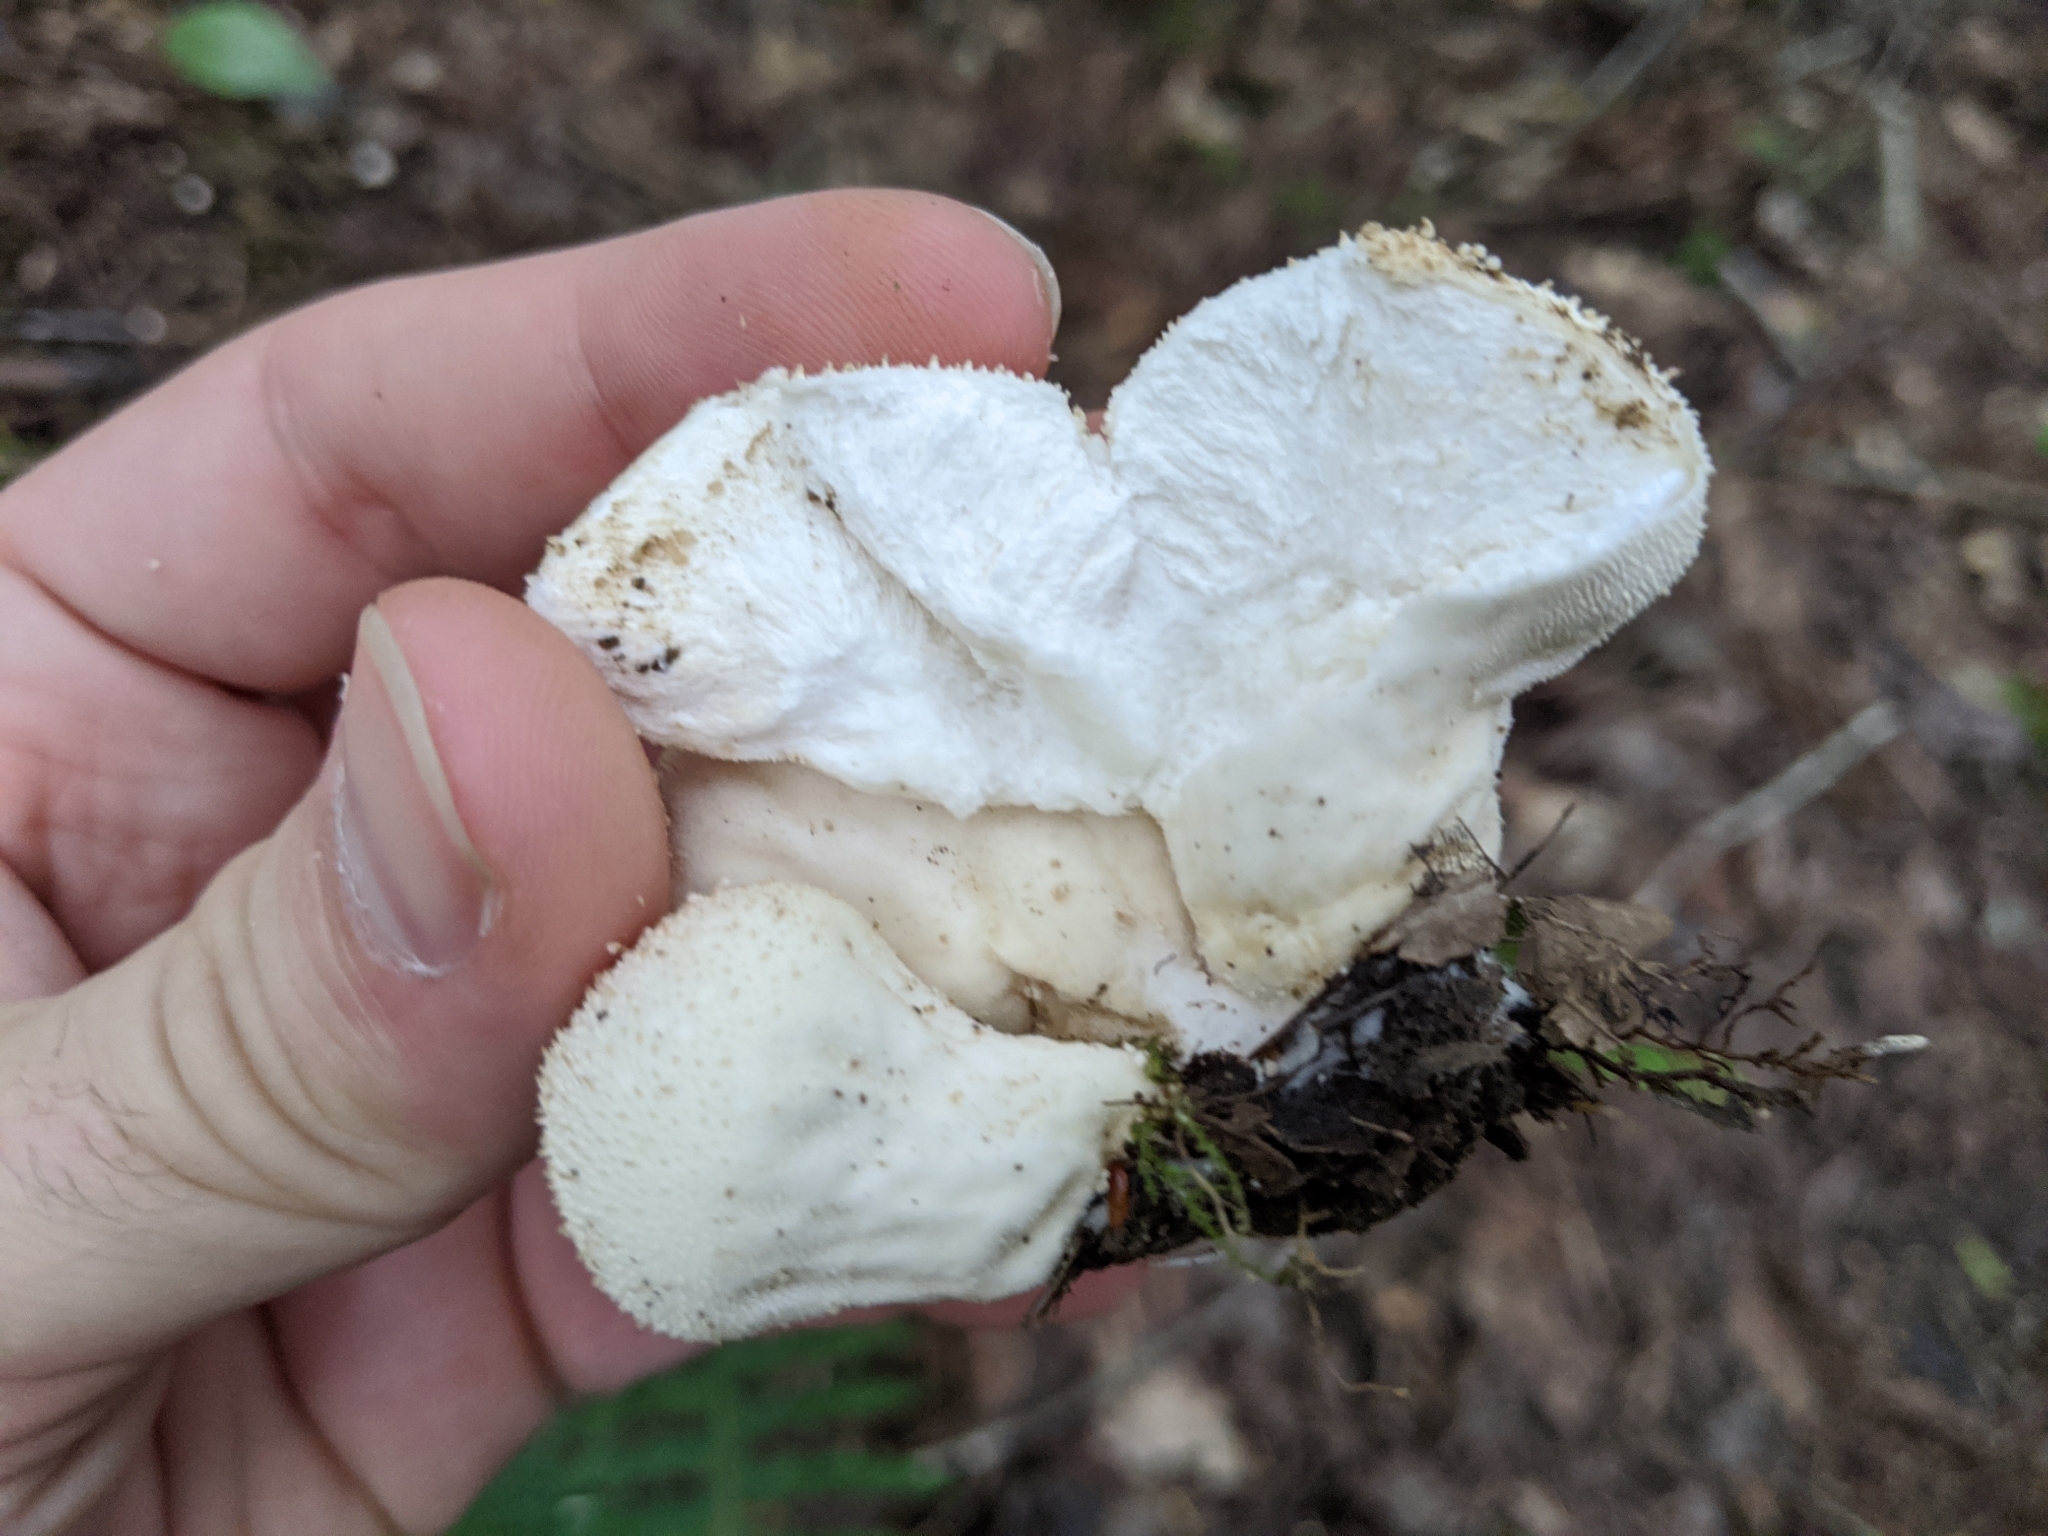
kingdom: Fungi
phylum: Basidiomycota
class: Agaricomycetes
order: Agaricales
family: Lycoperdaceae
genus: Lycoperdon
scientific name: Lycoperdon perlatum
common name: Common puffball
